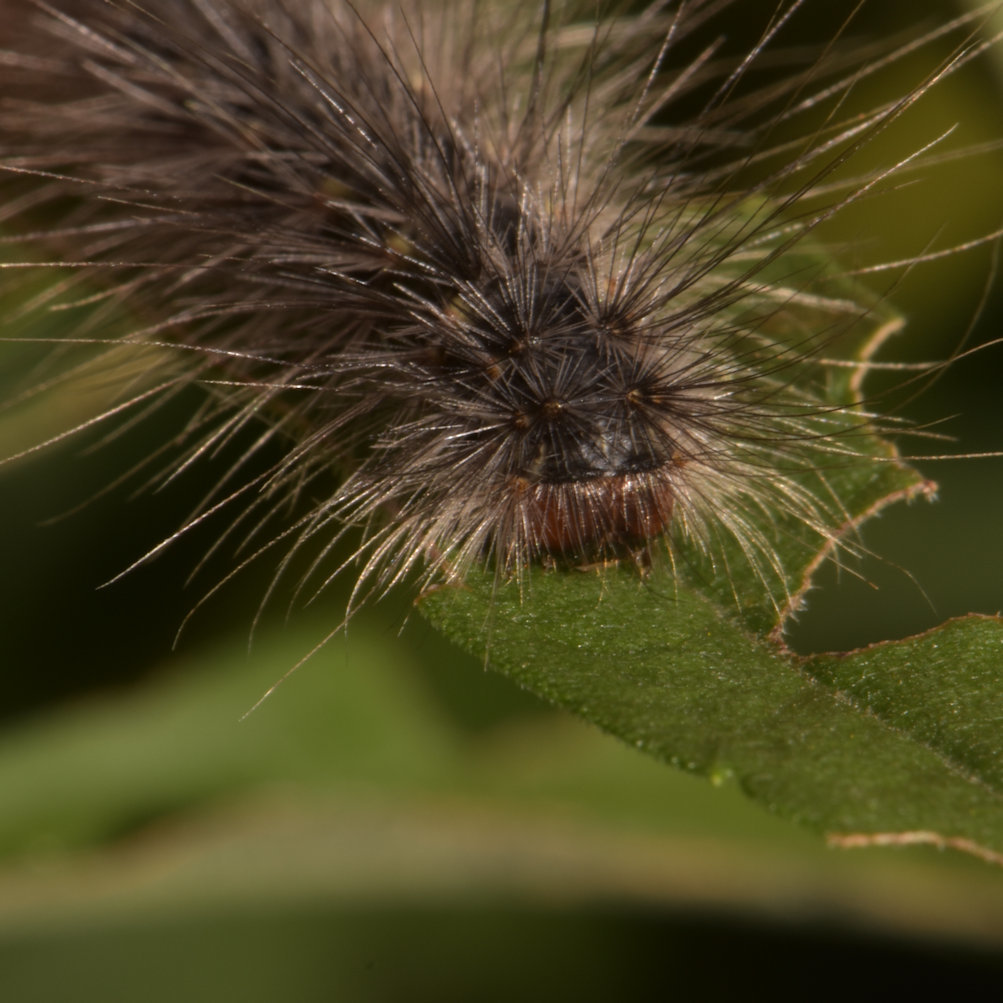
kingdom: Animalia
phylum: Arthropoda
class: Insecta
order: Lepidoptera
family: Erebidae
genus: Hyphantria
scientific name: Hyphantria cunea
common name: American white moth
